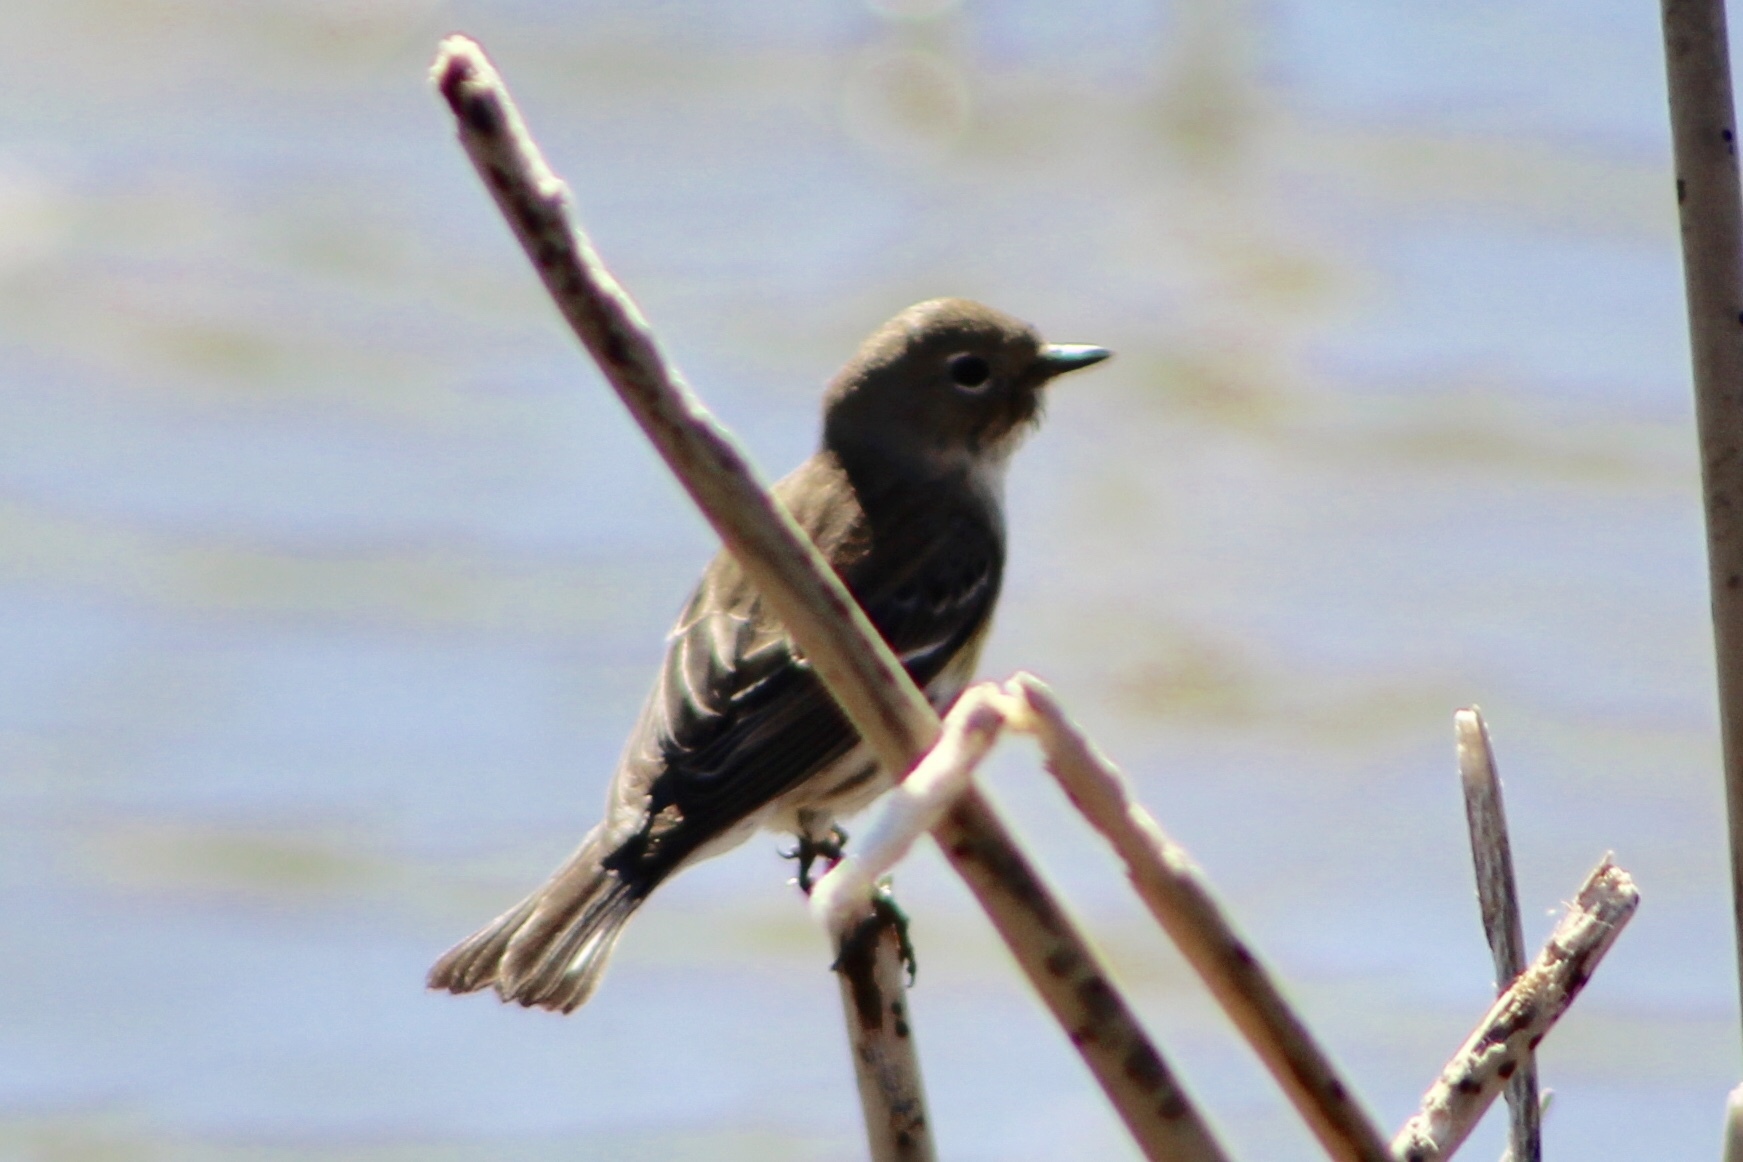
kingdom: Animalia
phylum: Chordata
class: Aves
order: Passeriformes
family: Parulidae
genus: Setophaga
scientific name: Setophaga coronata
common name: Myrtle warbler
